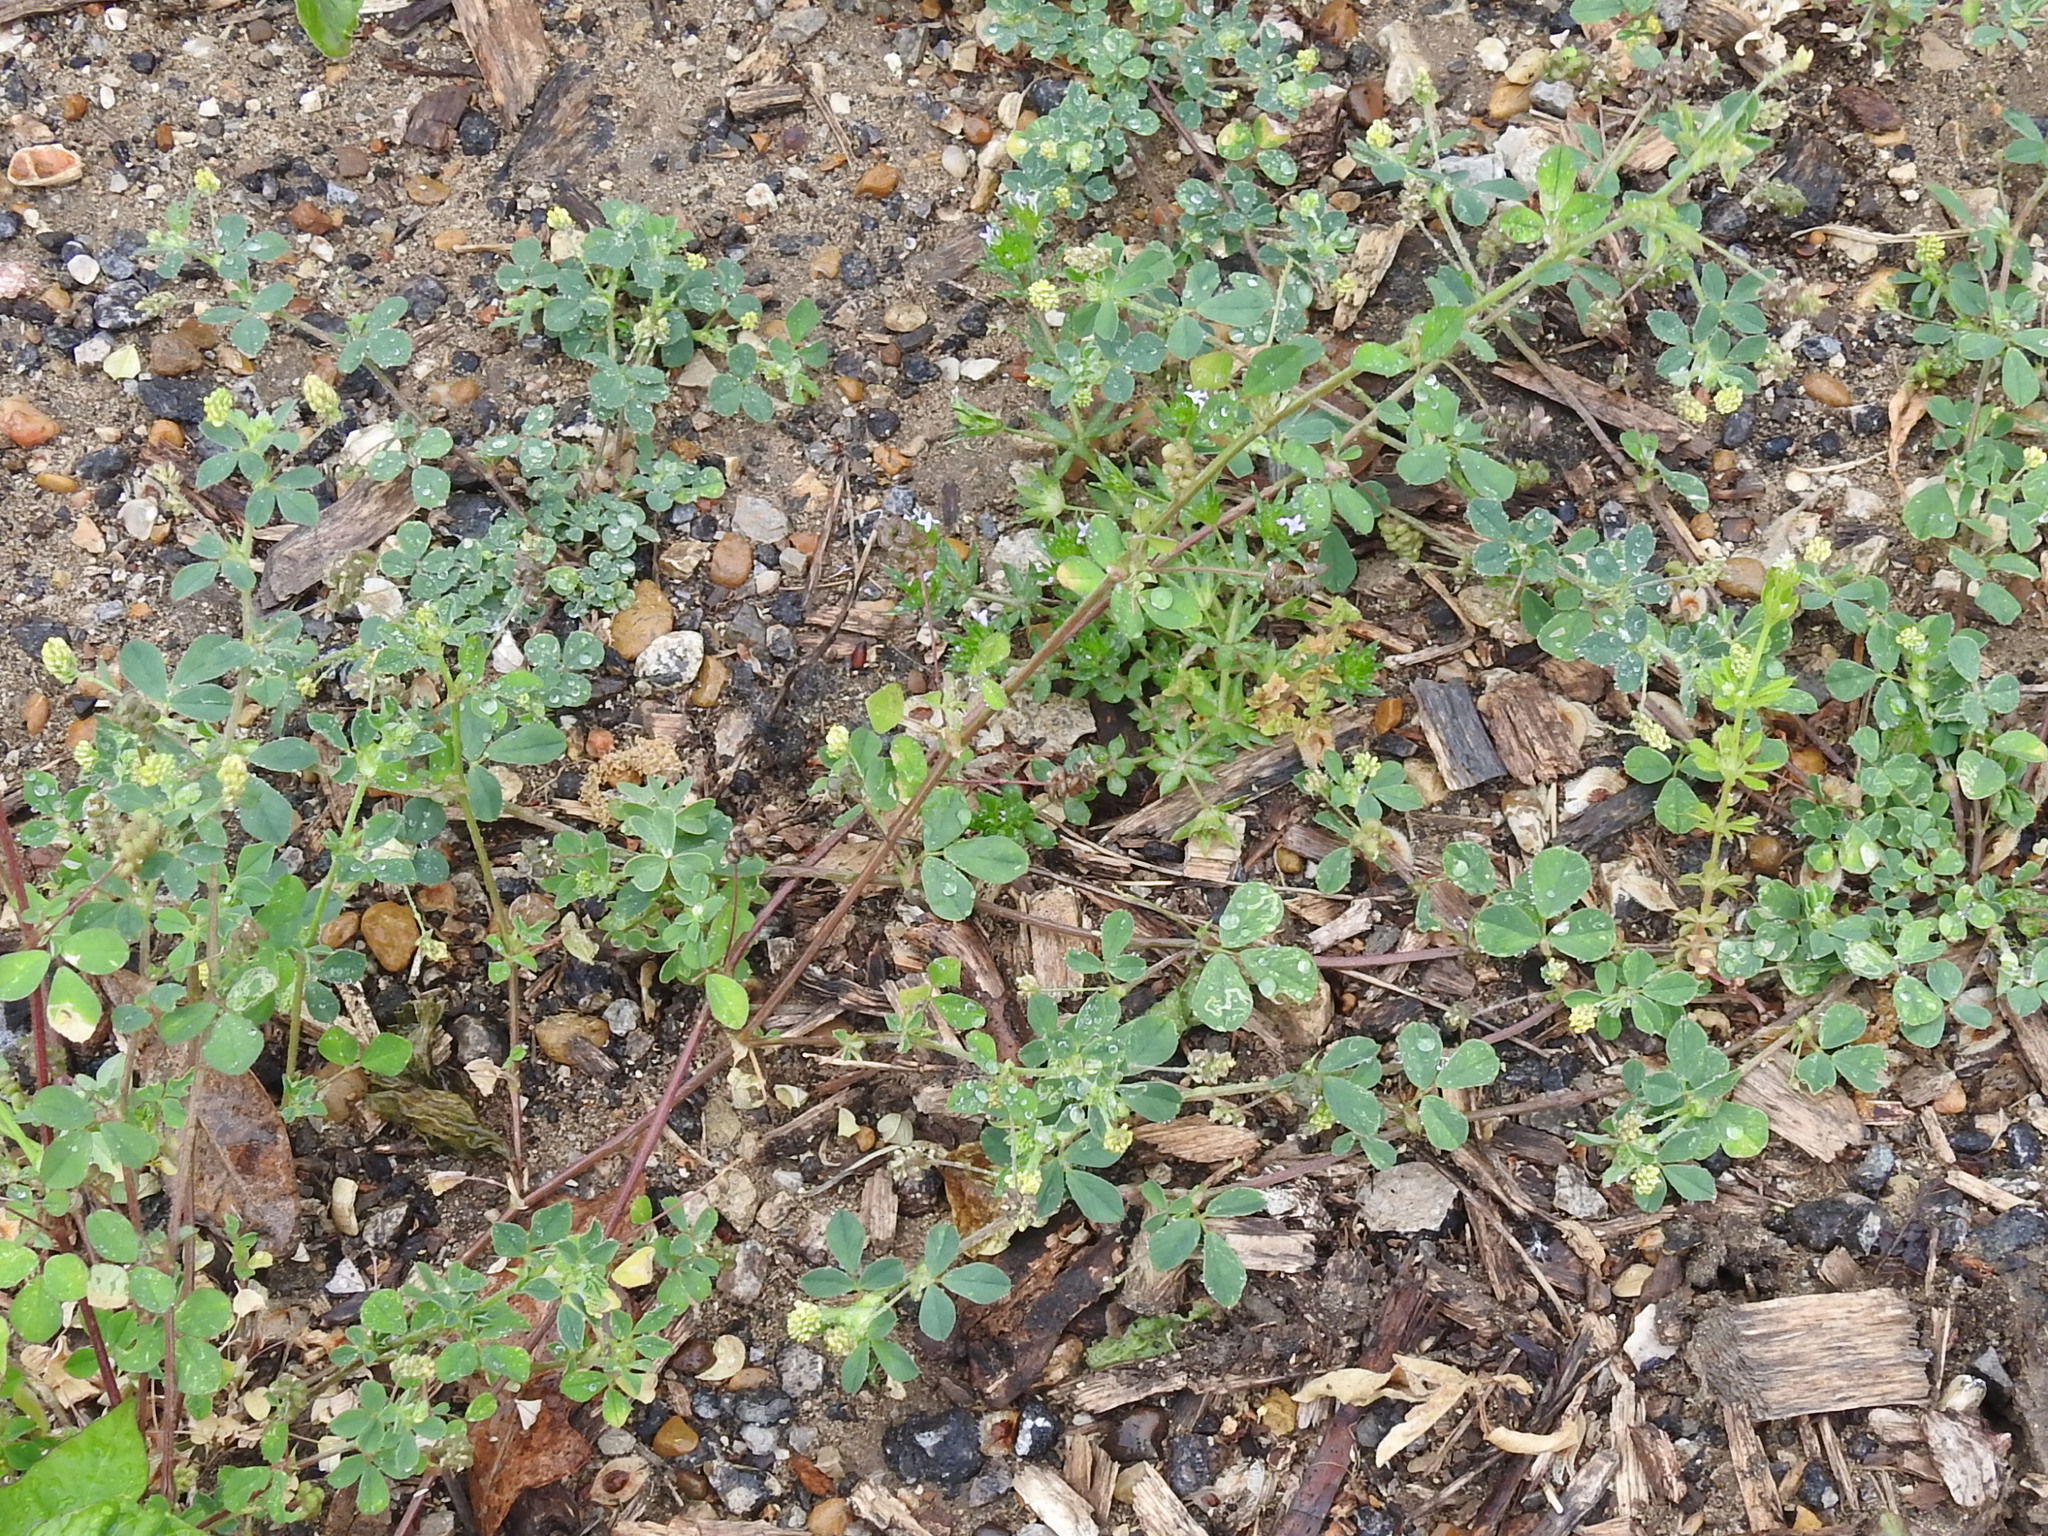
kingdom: Plantae
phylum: Tracheophyta
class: Magnoliopsida
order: Fabales
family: Fabaceae
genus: Medicago
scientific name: Medicago lupulina
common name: Black medick
